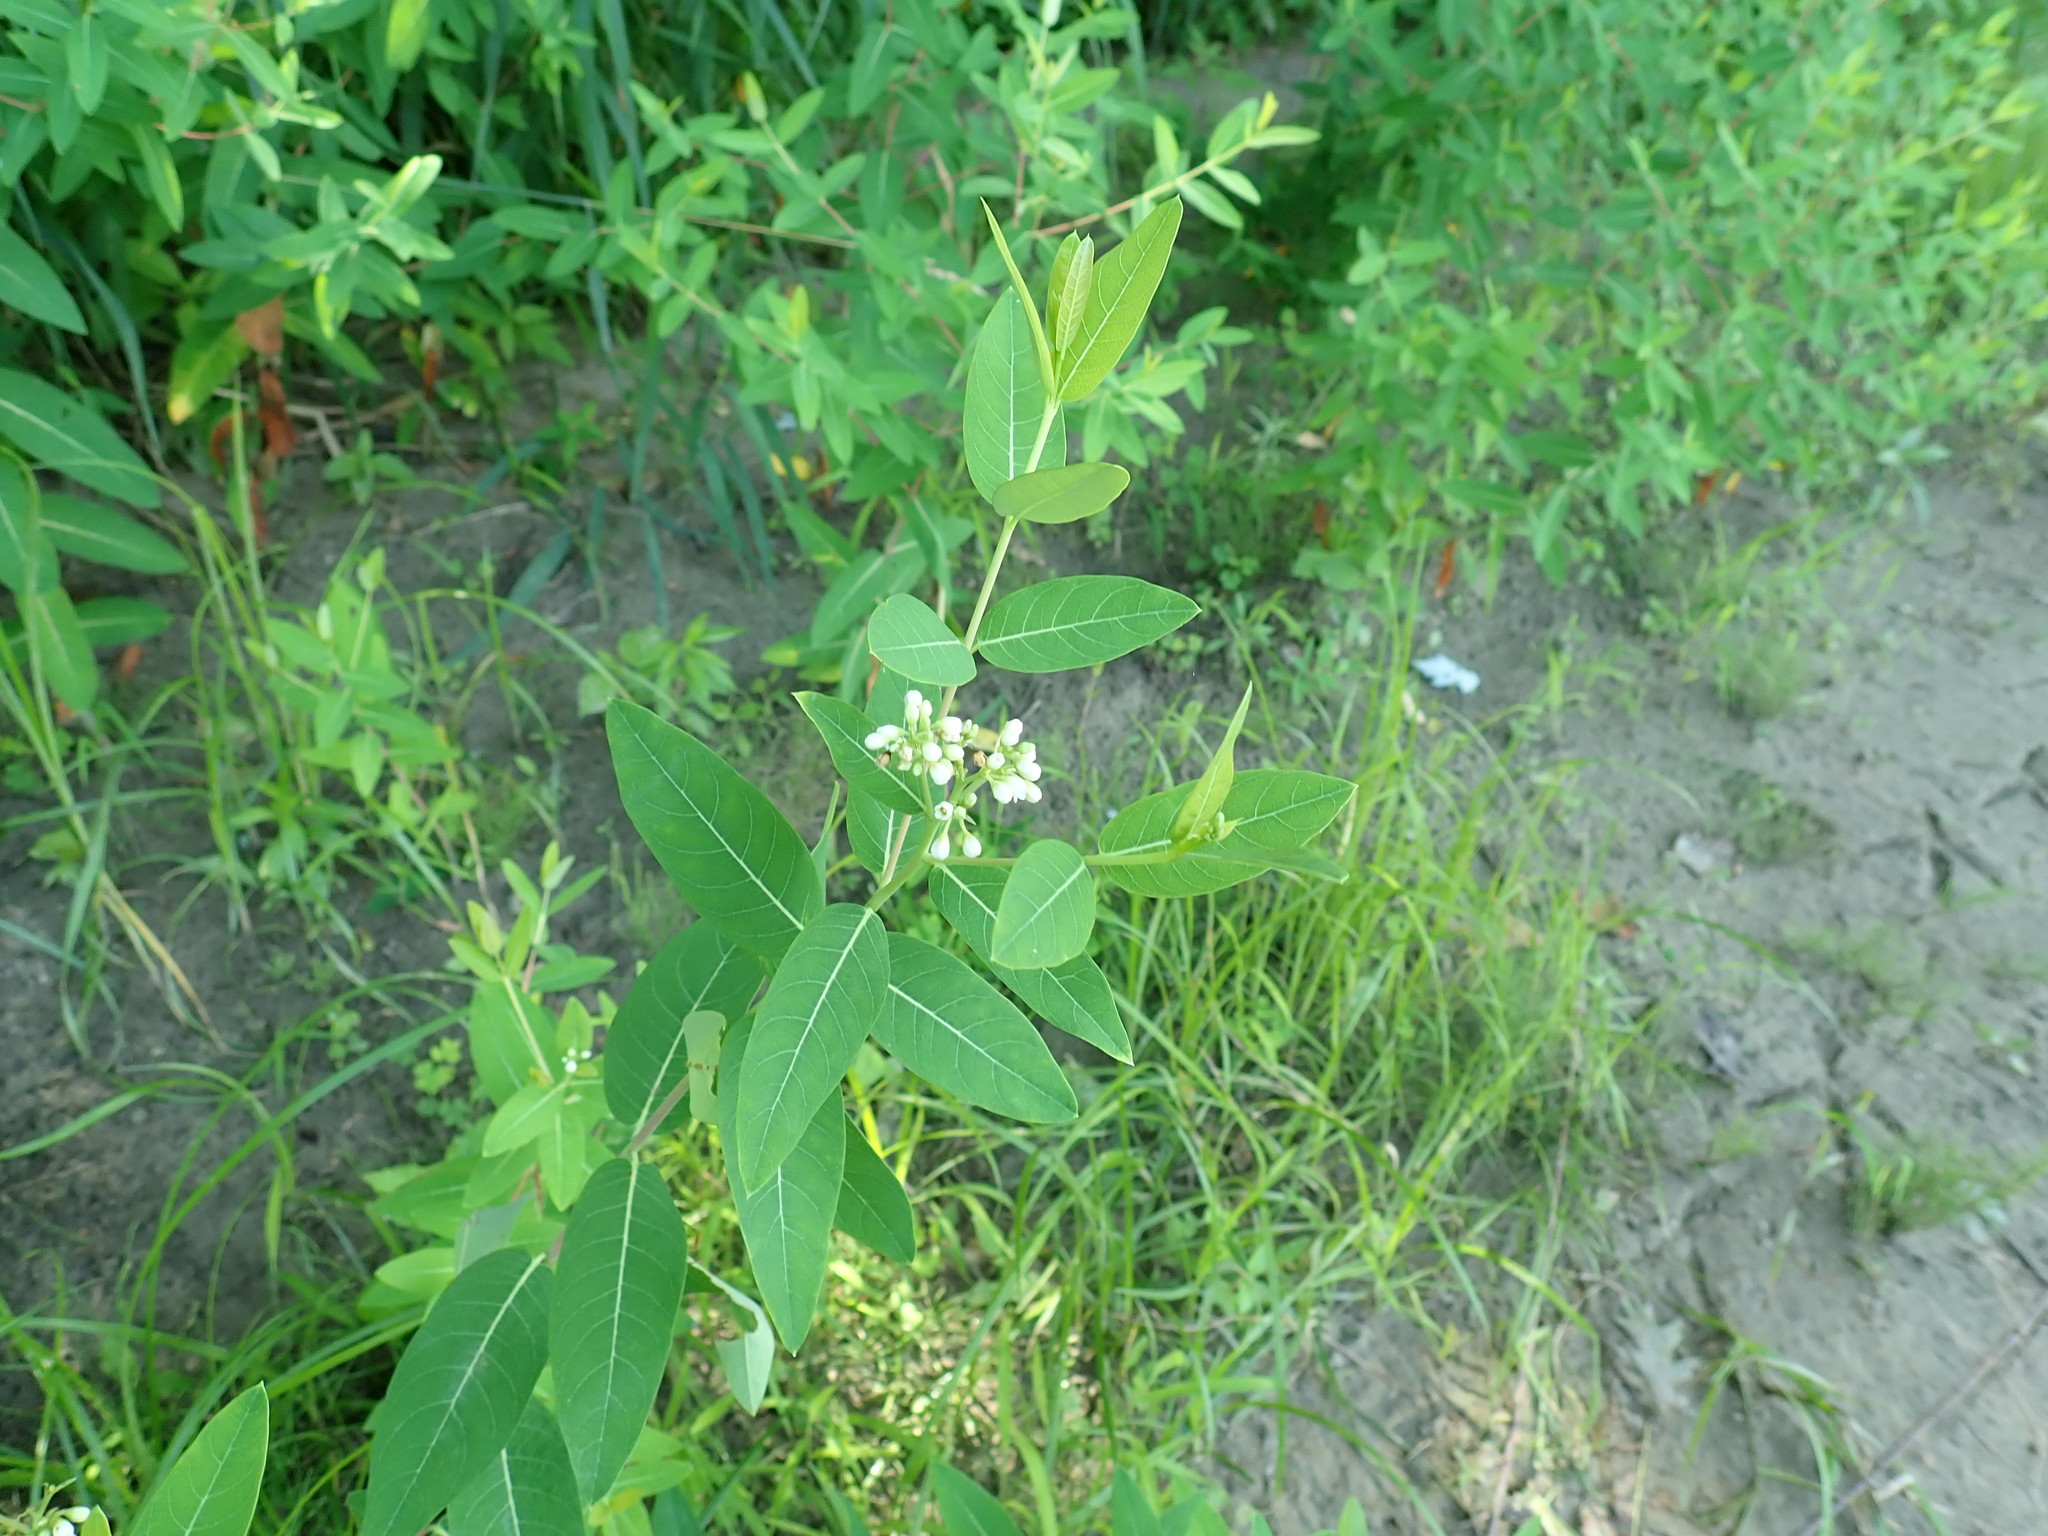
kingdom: Plantae
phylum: Tracheophyta
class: Magnoliopsida
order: Gentianales
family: Apocynaceae
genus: Apocynum
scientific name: Apocynum cannabinum
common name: Hemp dogbane
